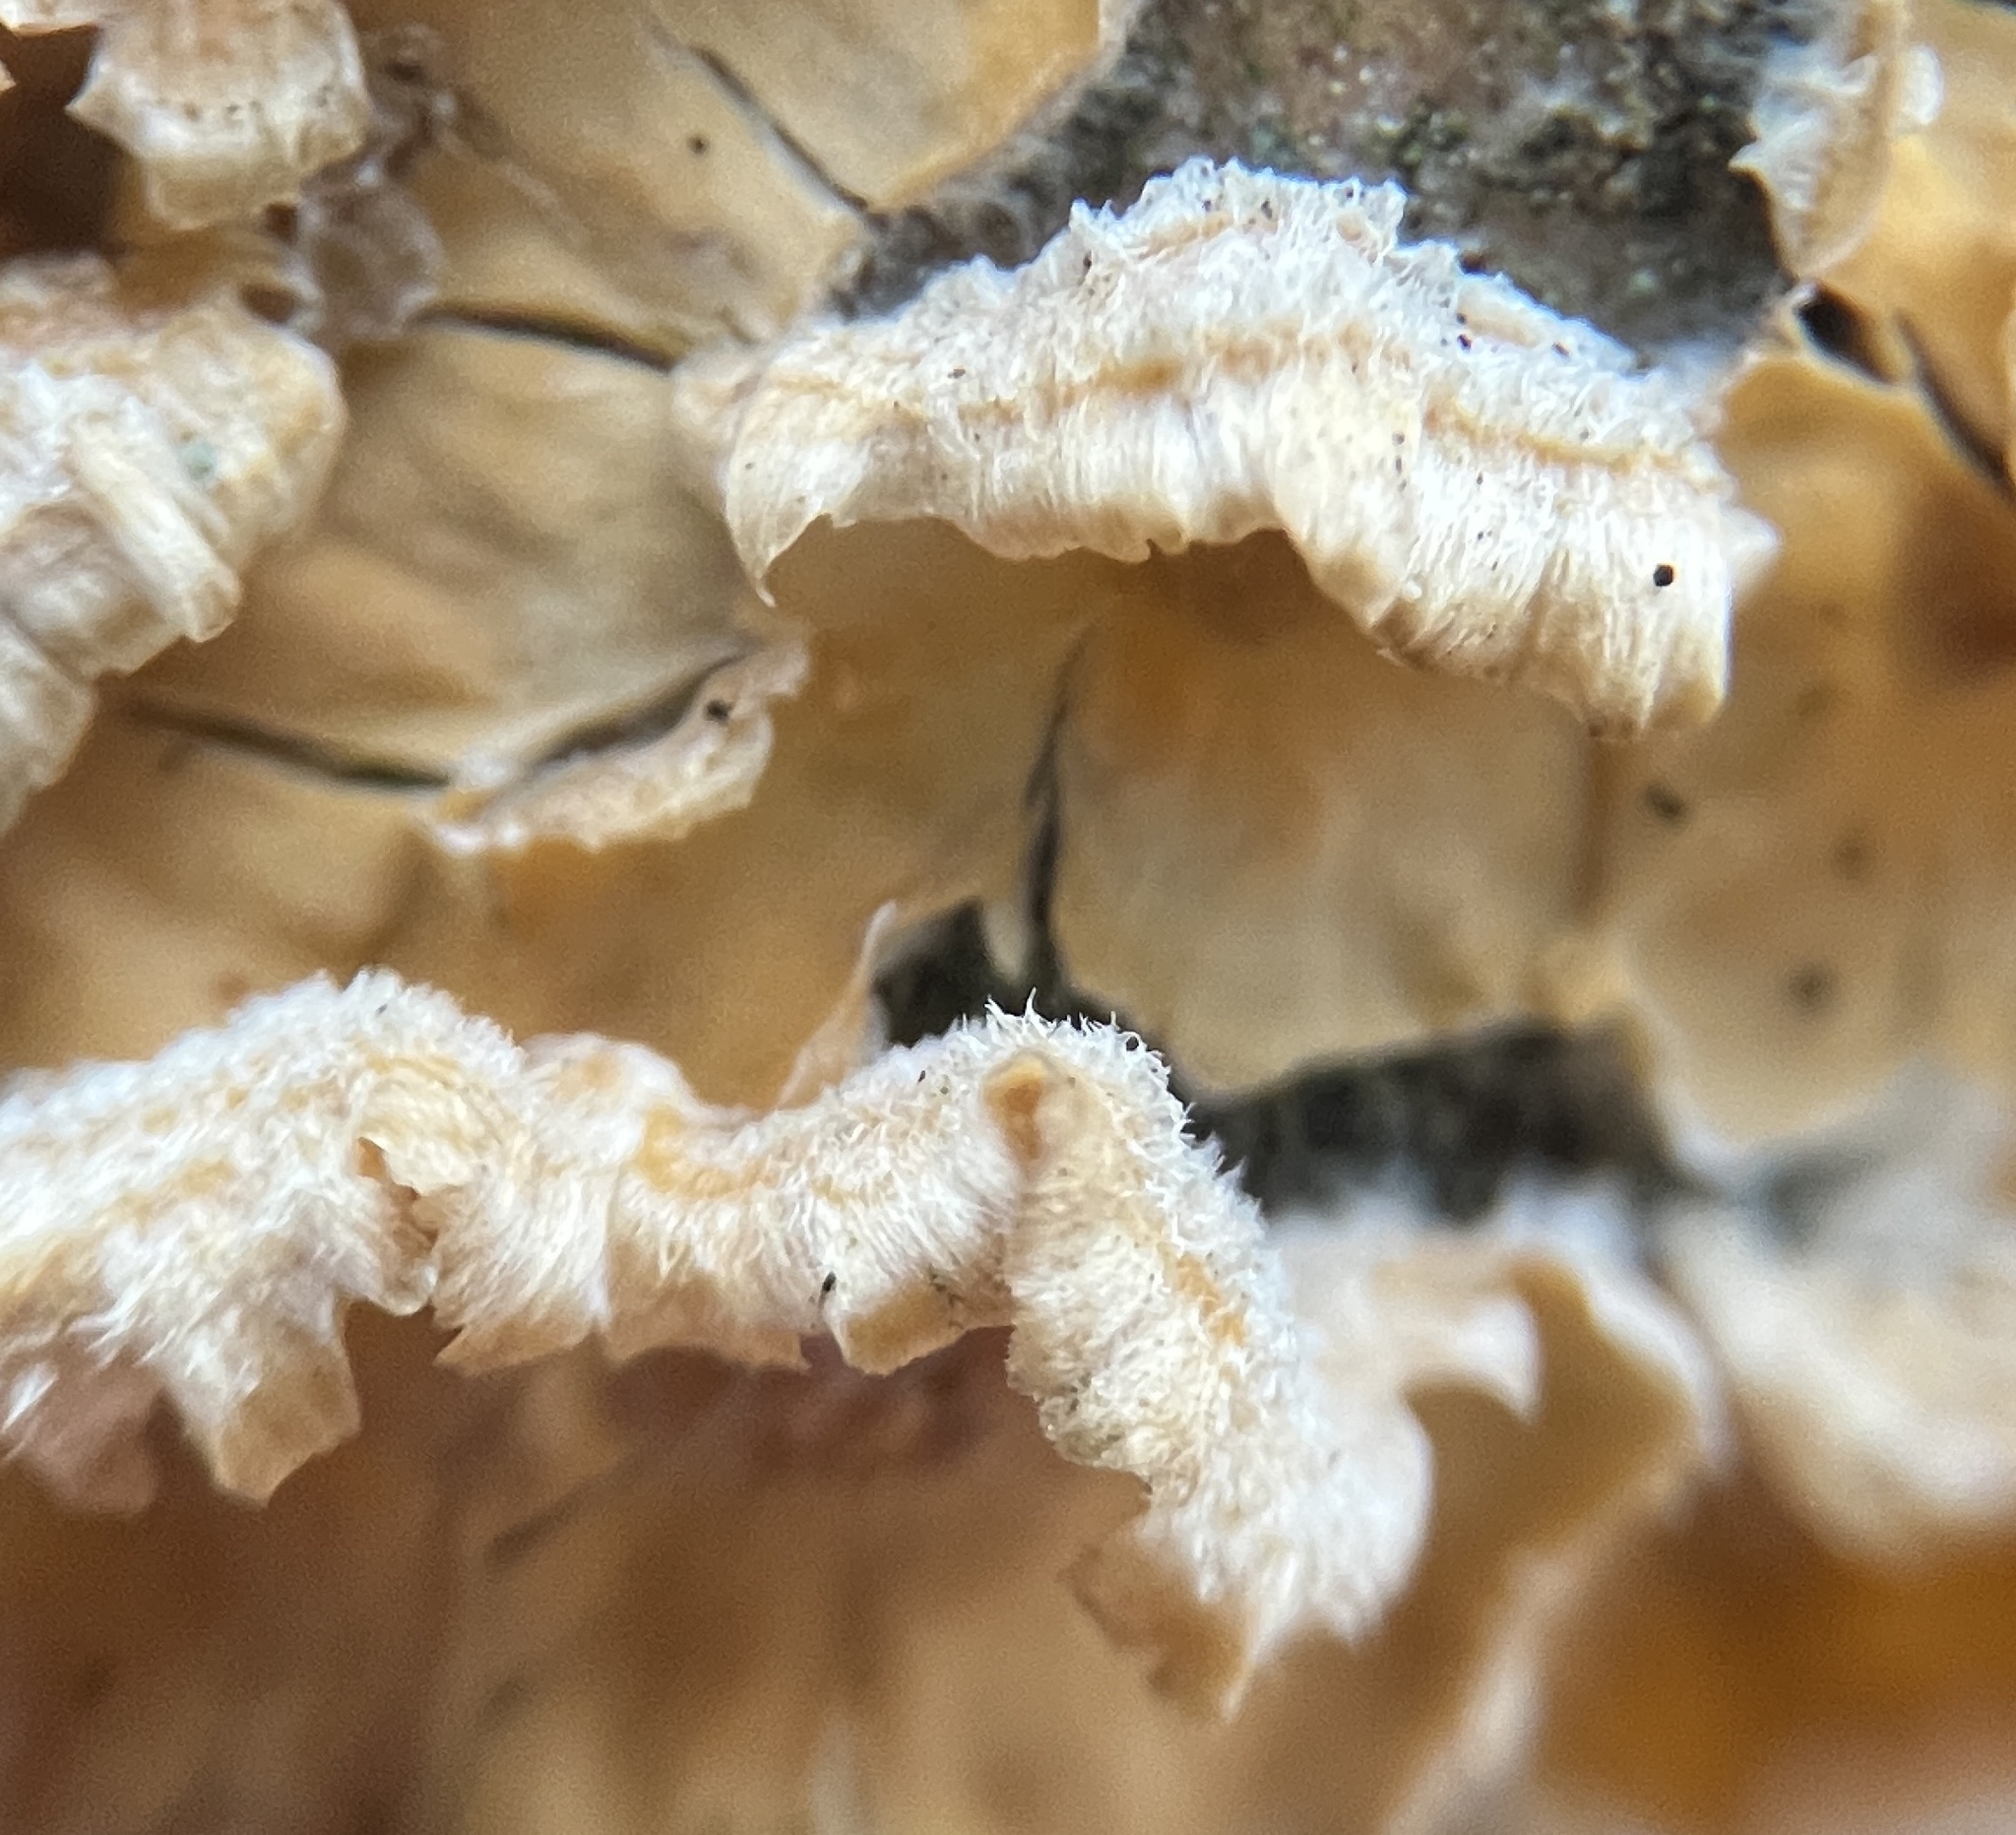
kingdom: Fungi
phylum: Basidiomycota
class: Agaricomycetes
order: Russulales
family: Stereaceae
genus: Stereum
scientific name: Stereum complicatum
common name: Crowded parchment
